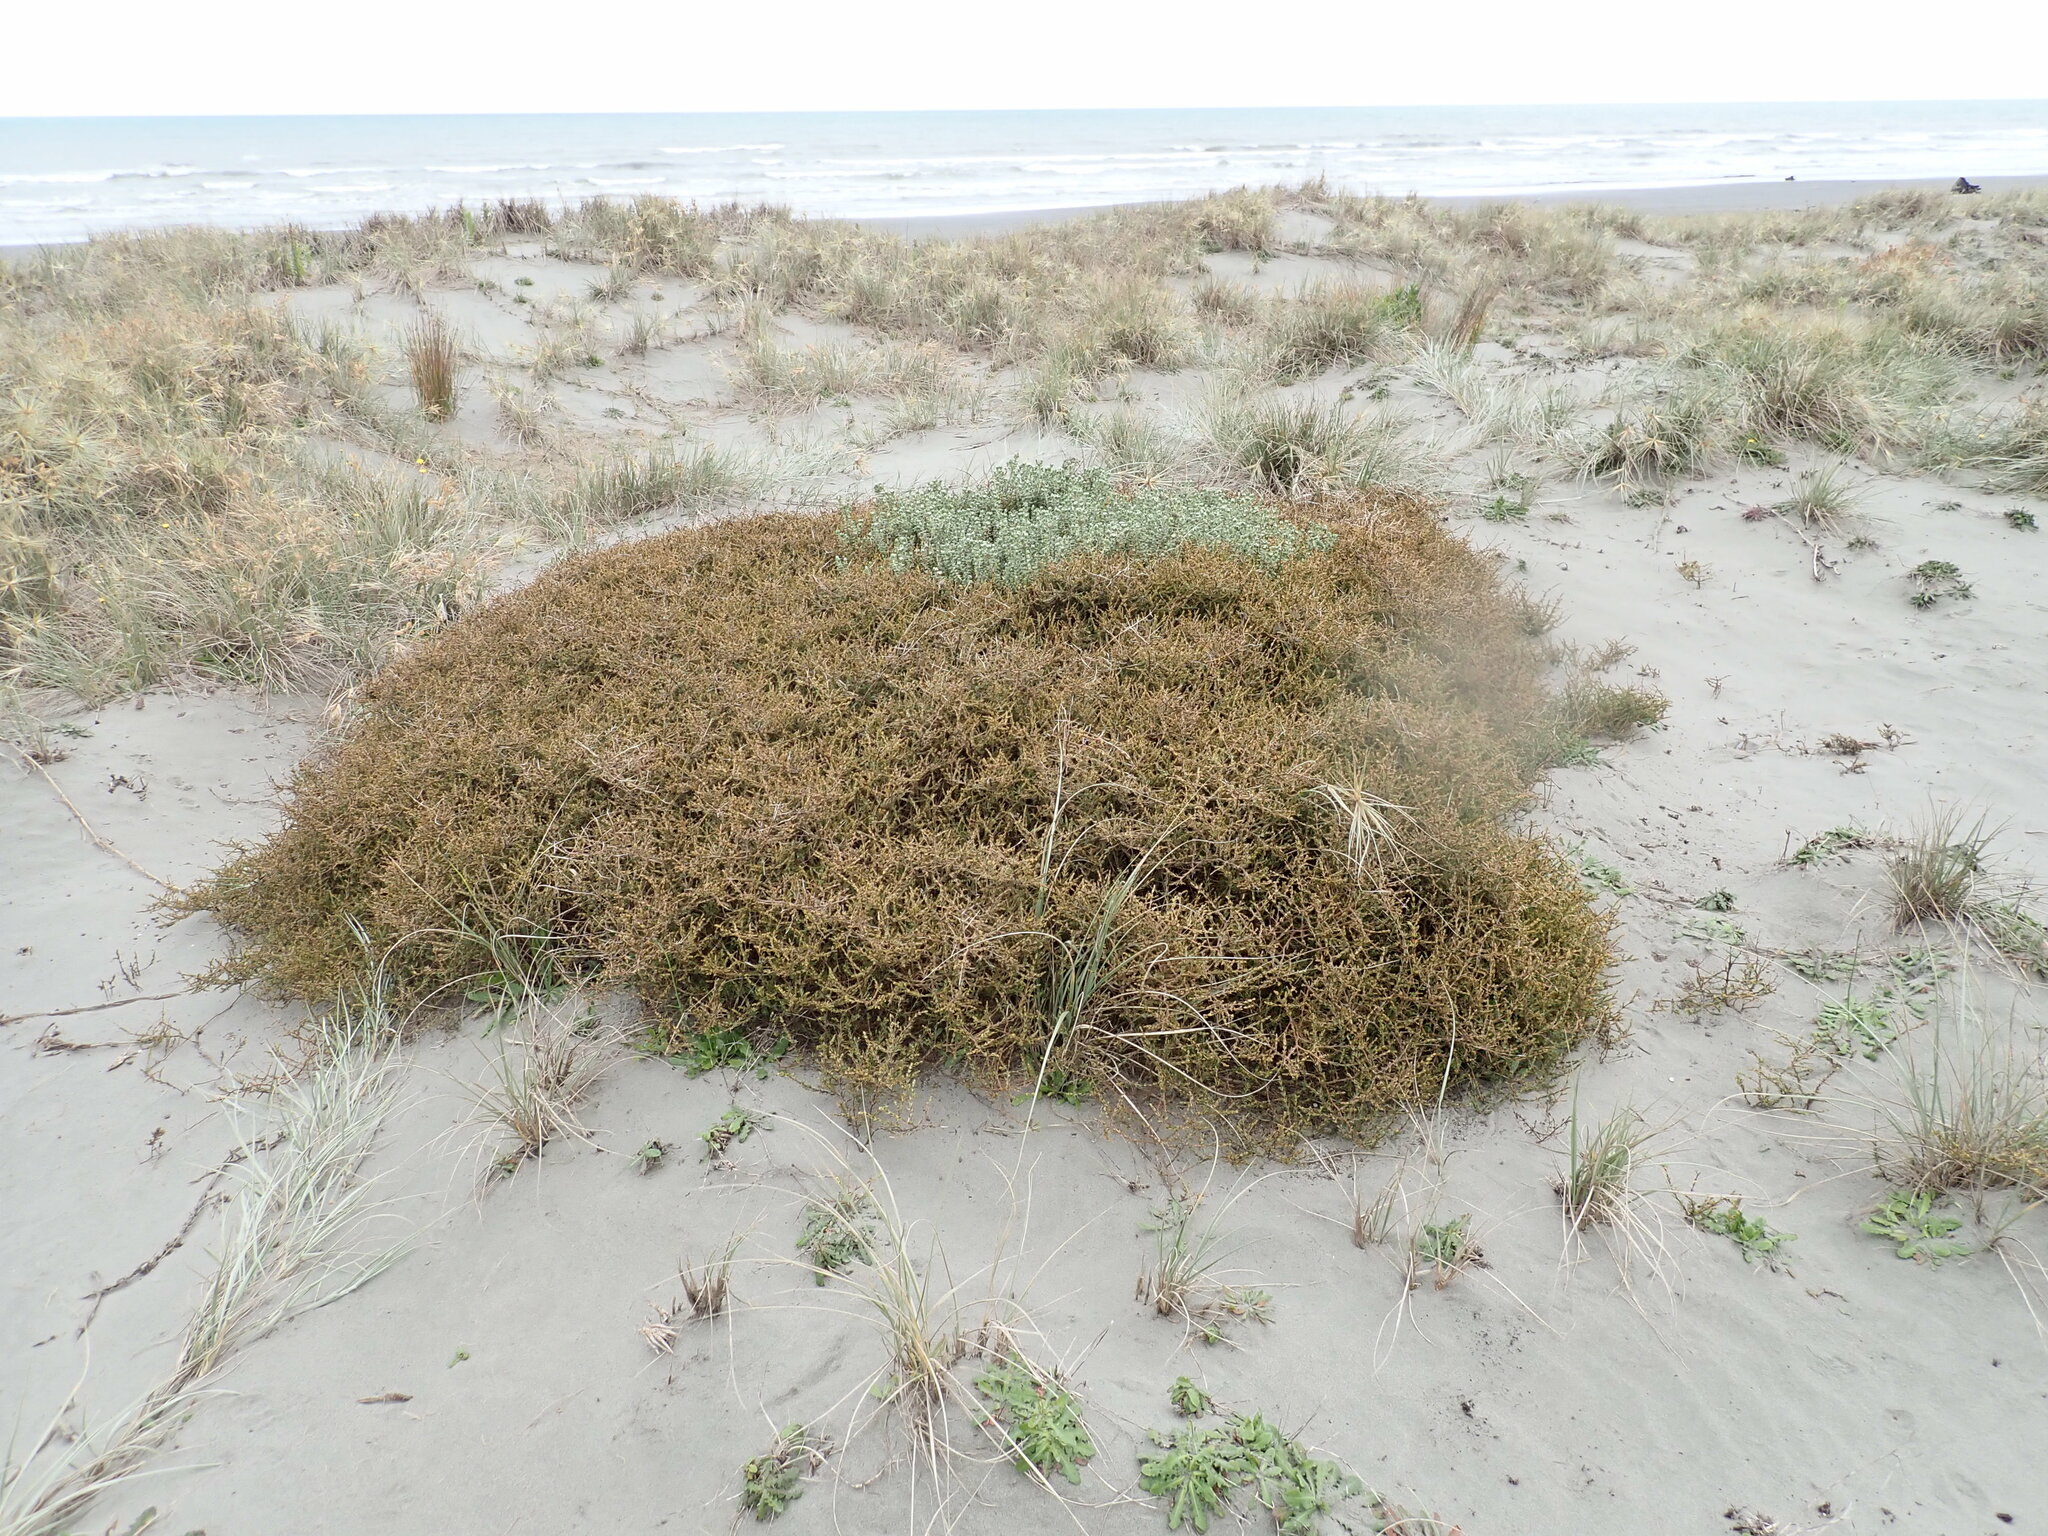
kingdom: Plantae
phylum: Tracheophyta
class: Magnoliopsida
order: Gentianales
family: Rubiaceae
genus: Coprosma
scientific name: Coprosma acerosa
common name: Sand coprosma
